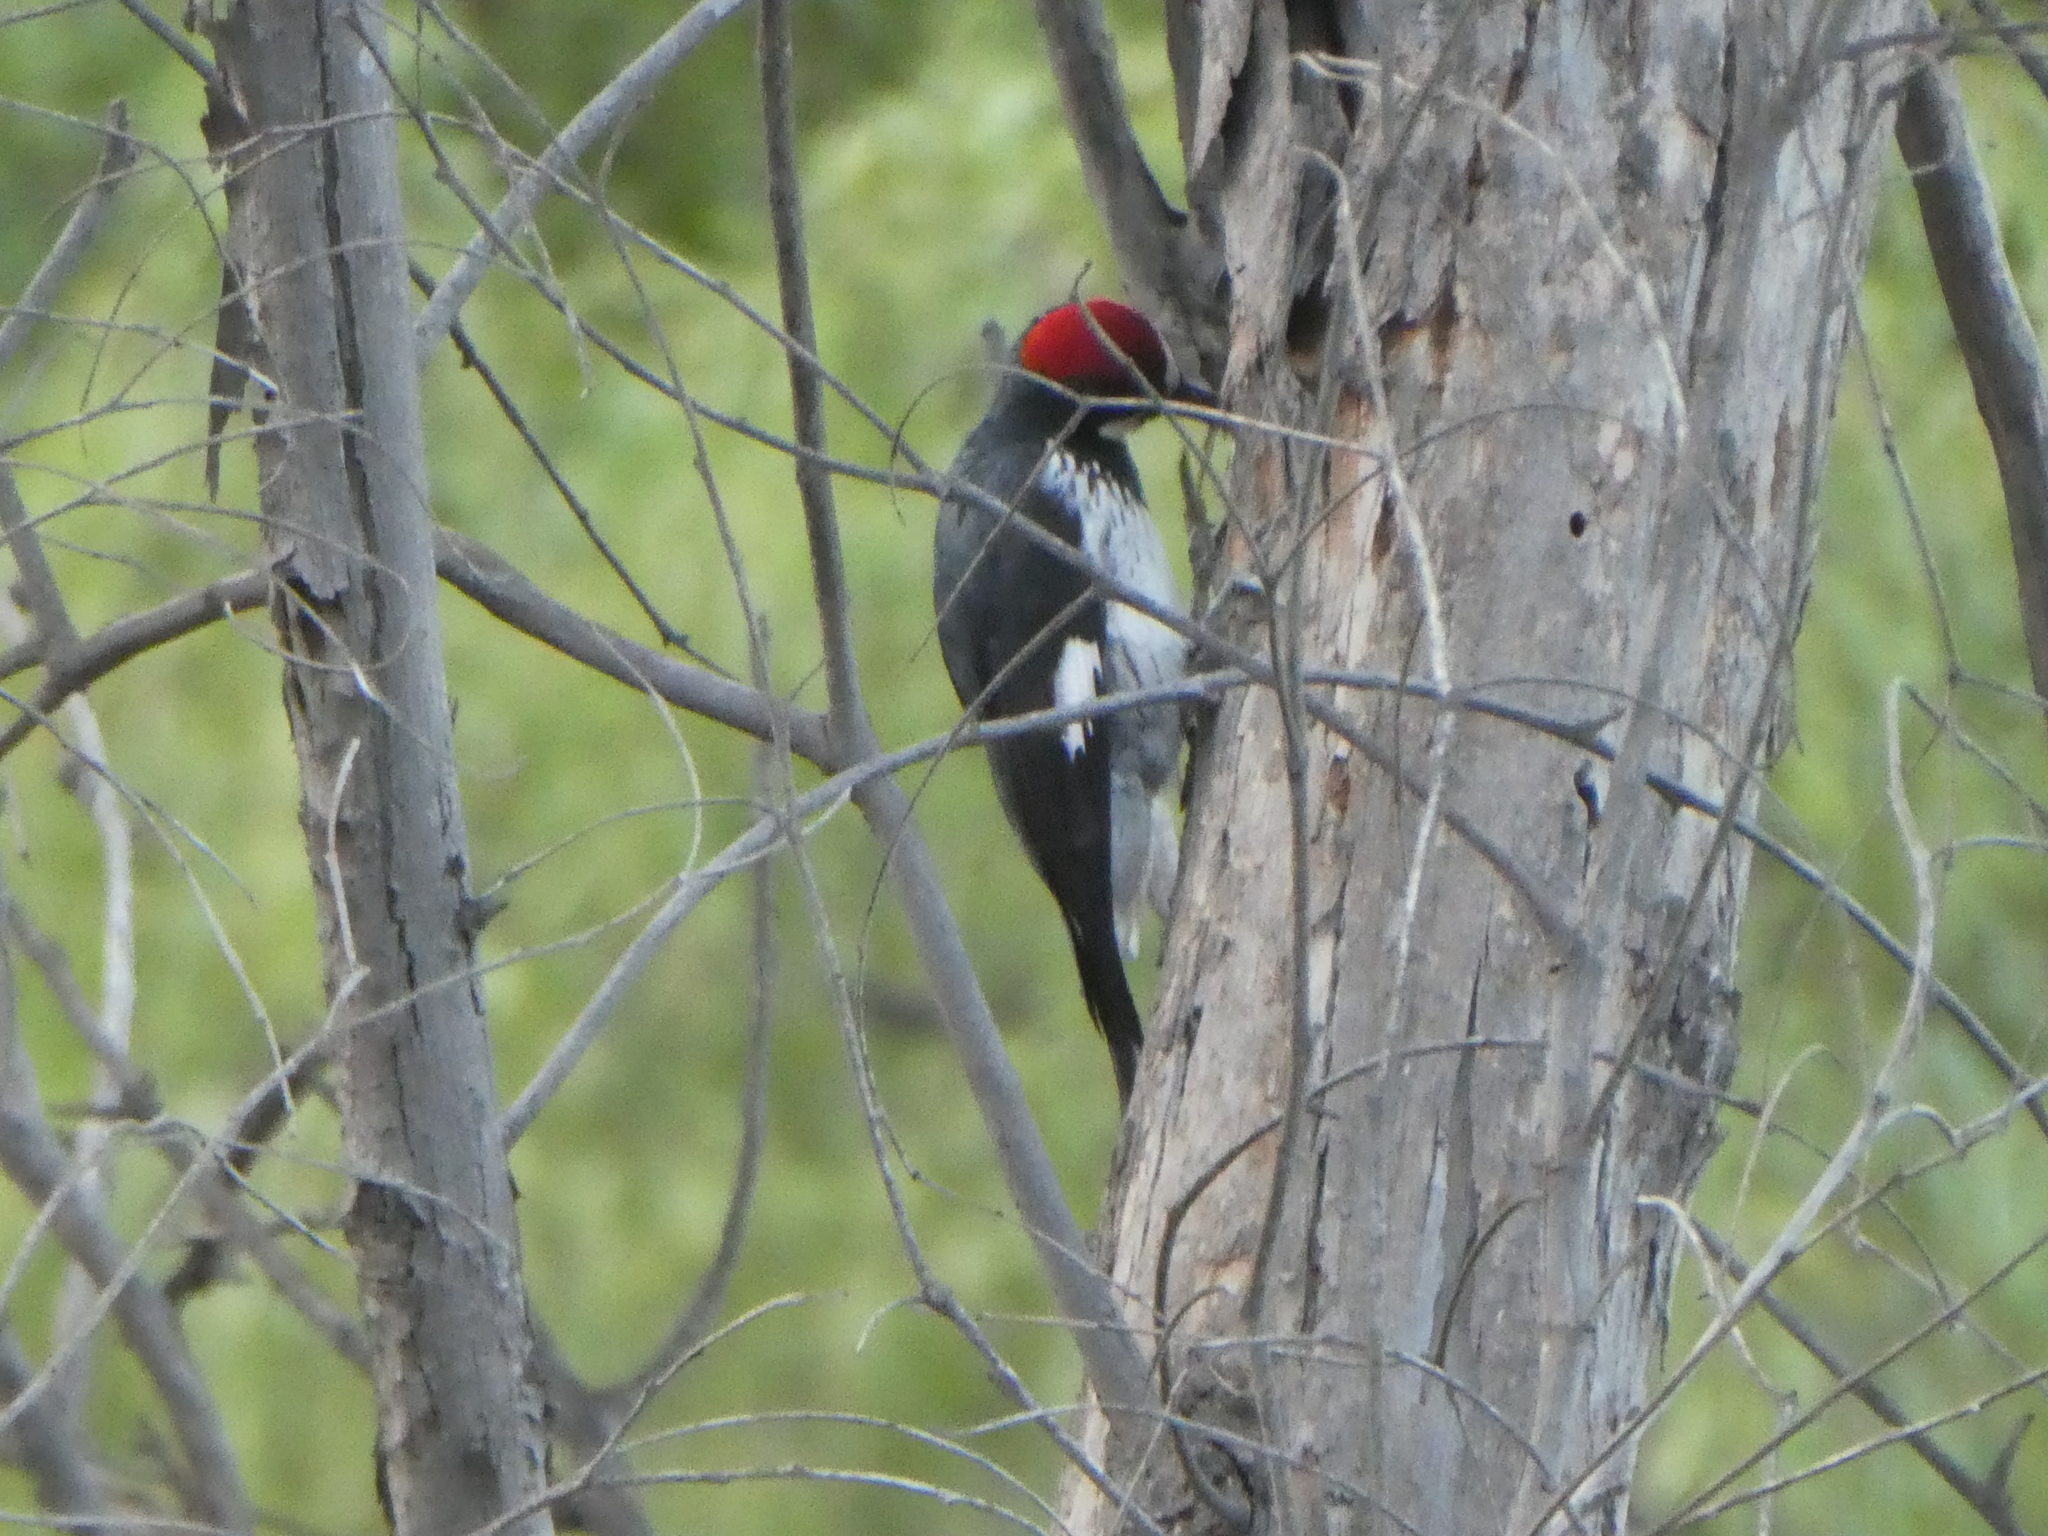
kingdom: Animalia
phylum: Chordata
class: Aves
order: Piciformes
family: Picidae
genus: Melanerpes
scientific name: Melanerpes formicivorus
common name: Acorn woodpecker
